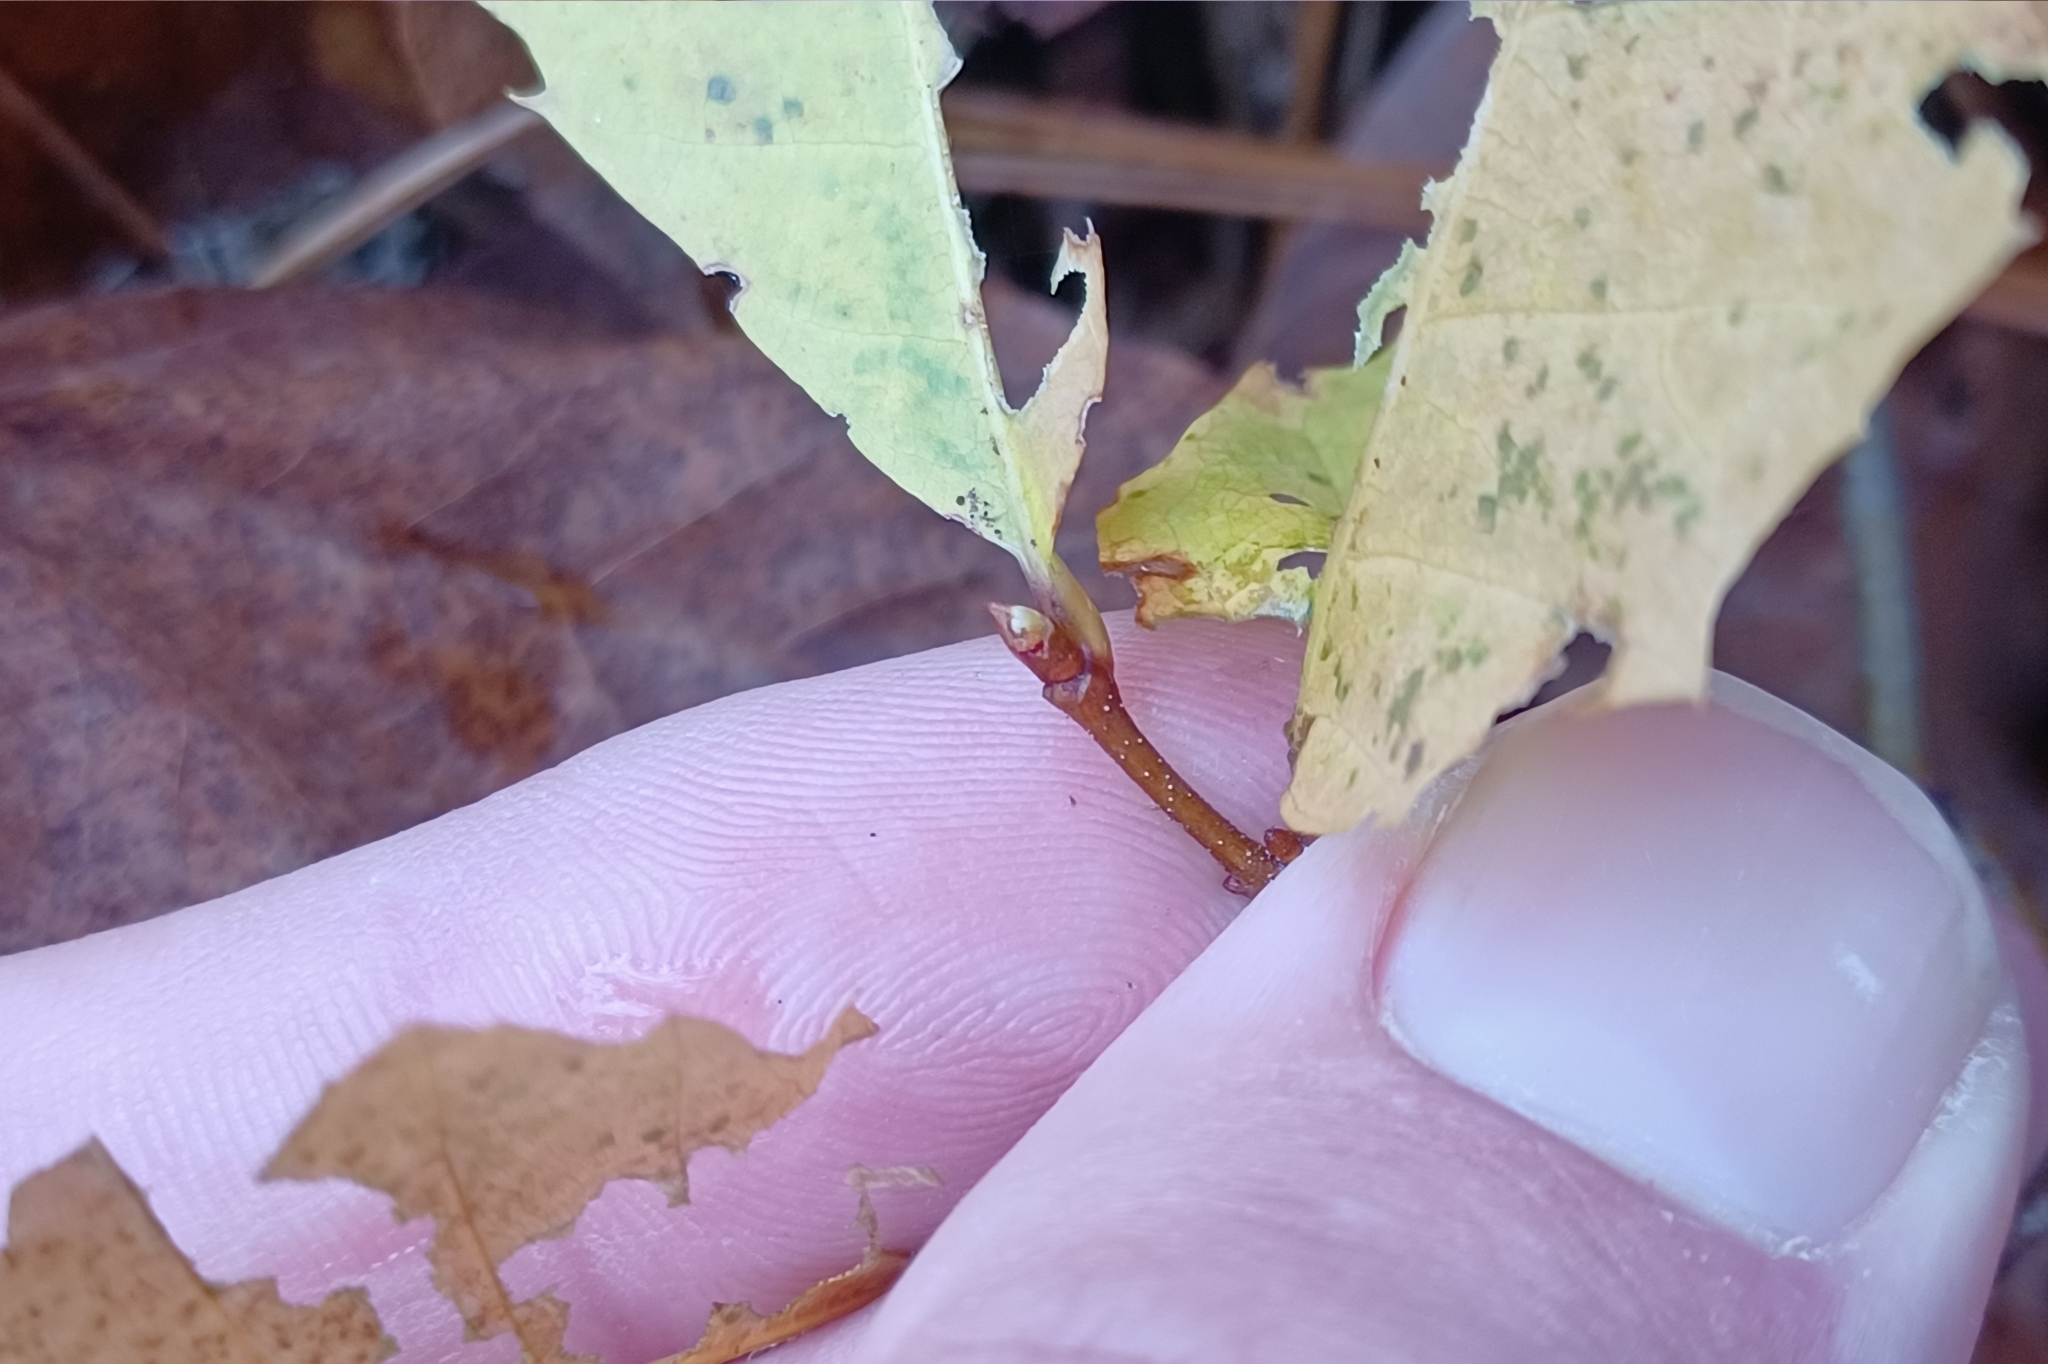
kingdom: Plantae
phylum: Tracheophyta
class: Magnoliopsida
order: Fagales
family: Fagaceae
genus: Castanea
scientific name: Castanea dentata
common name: American chestnut
